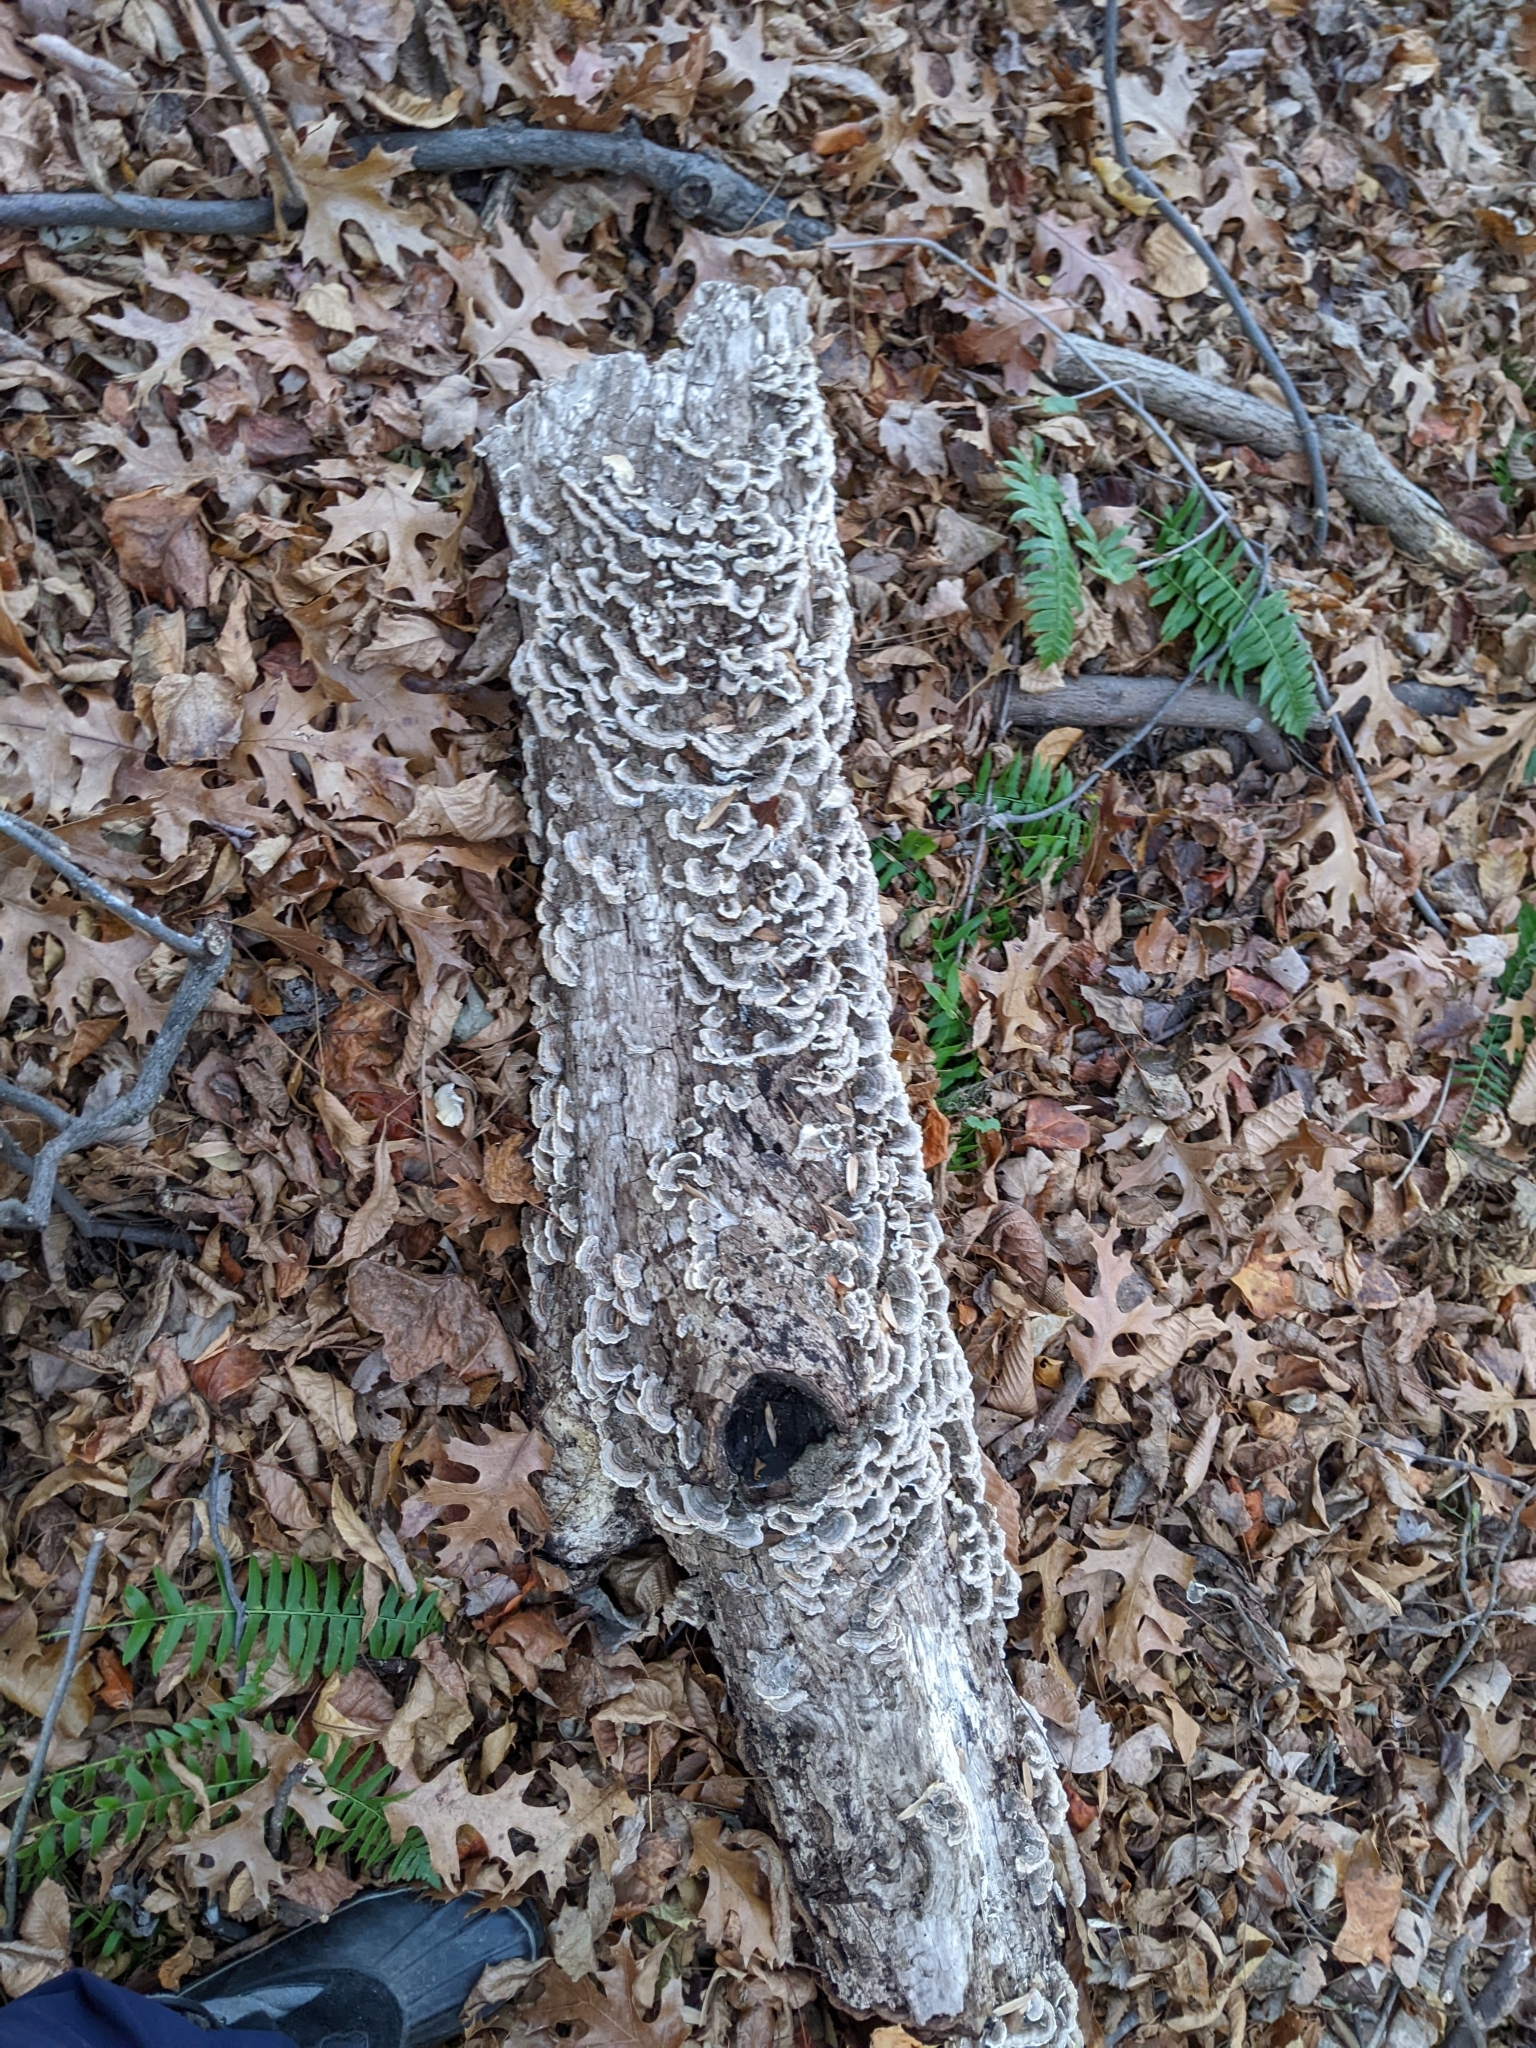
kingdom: Fungi
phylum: Basidiomycota
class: Agaricomycetes
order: Polyporales
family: Polyporaceae
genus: Trametes
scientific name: Trametes versicolor
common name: Turkeytail
